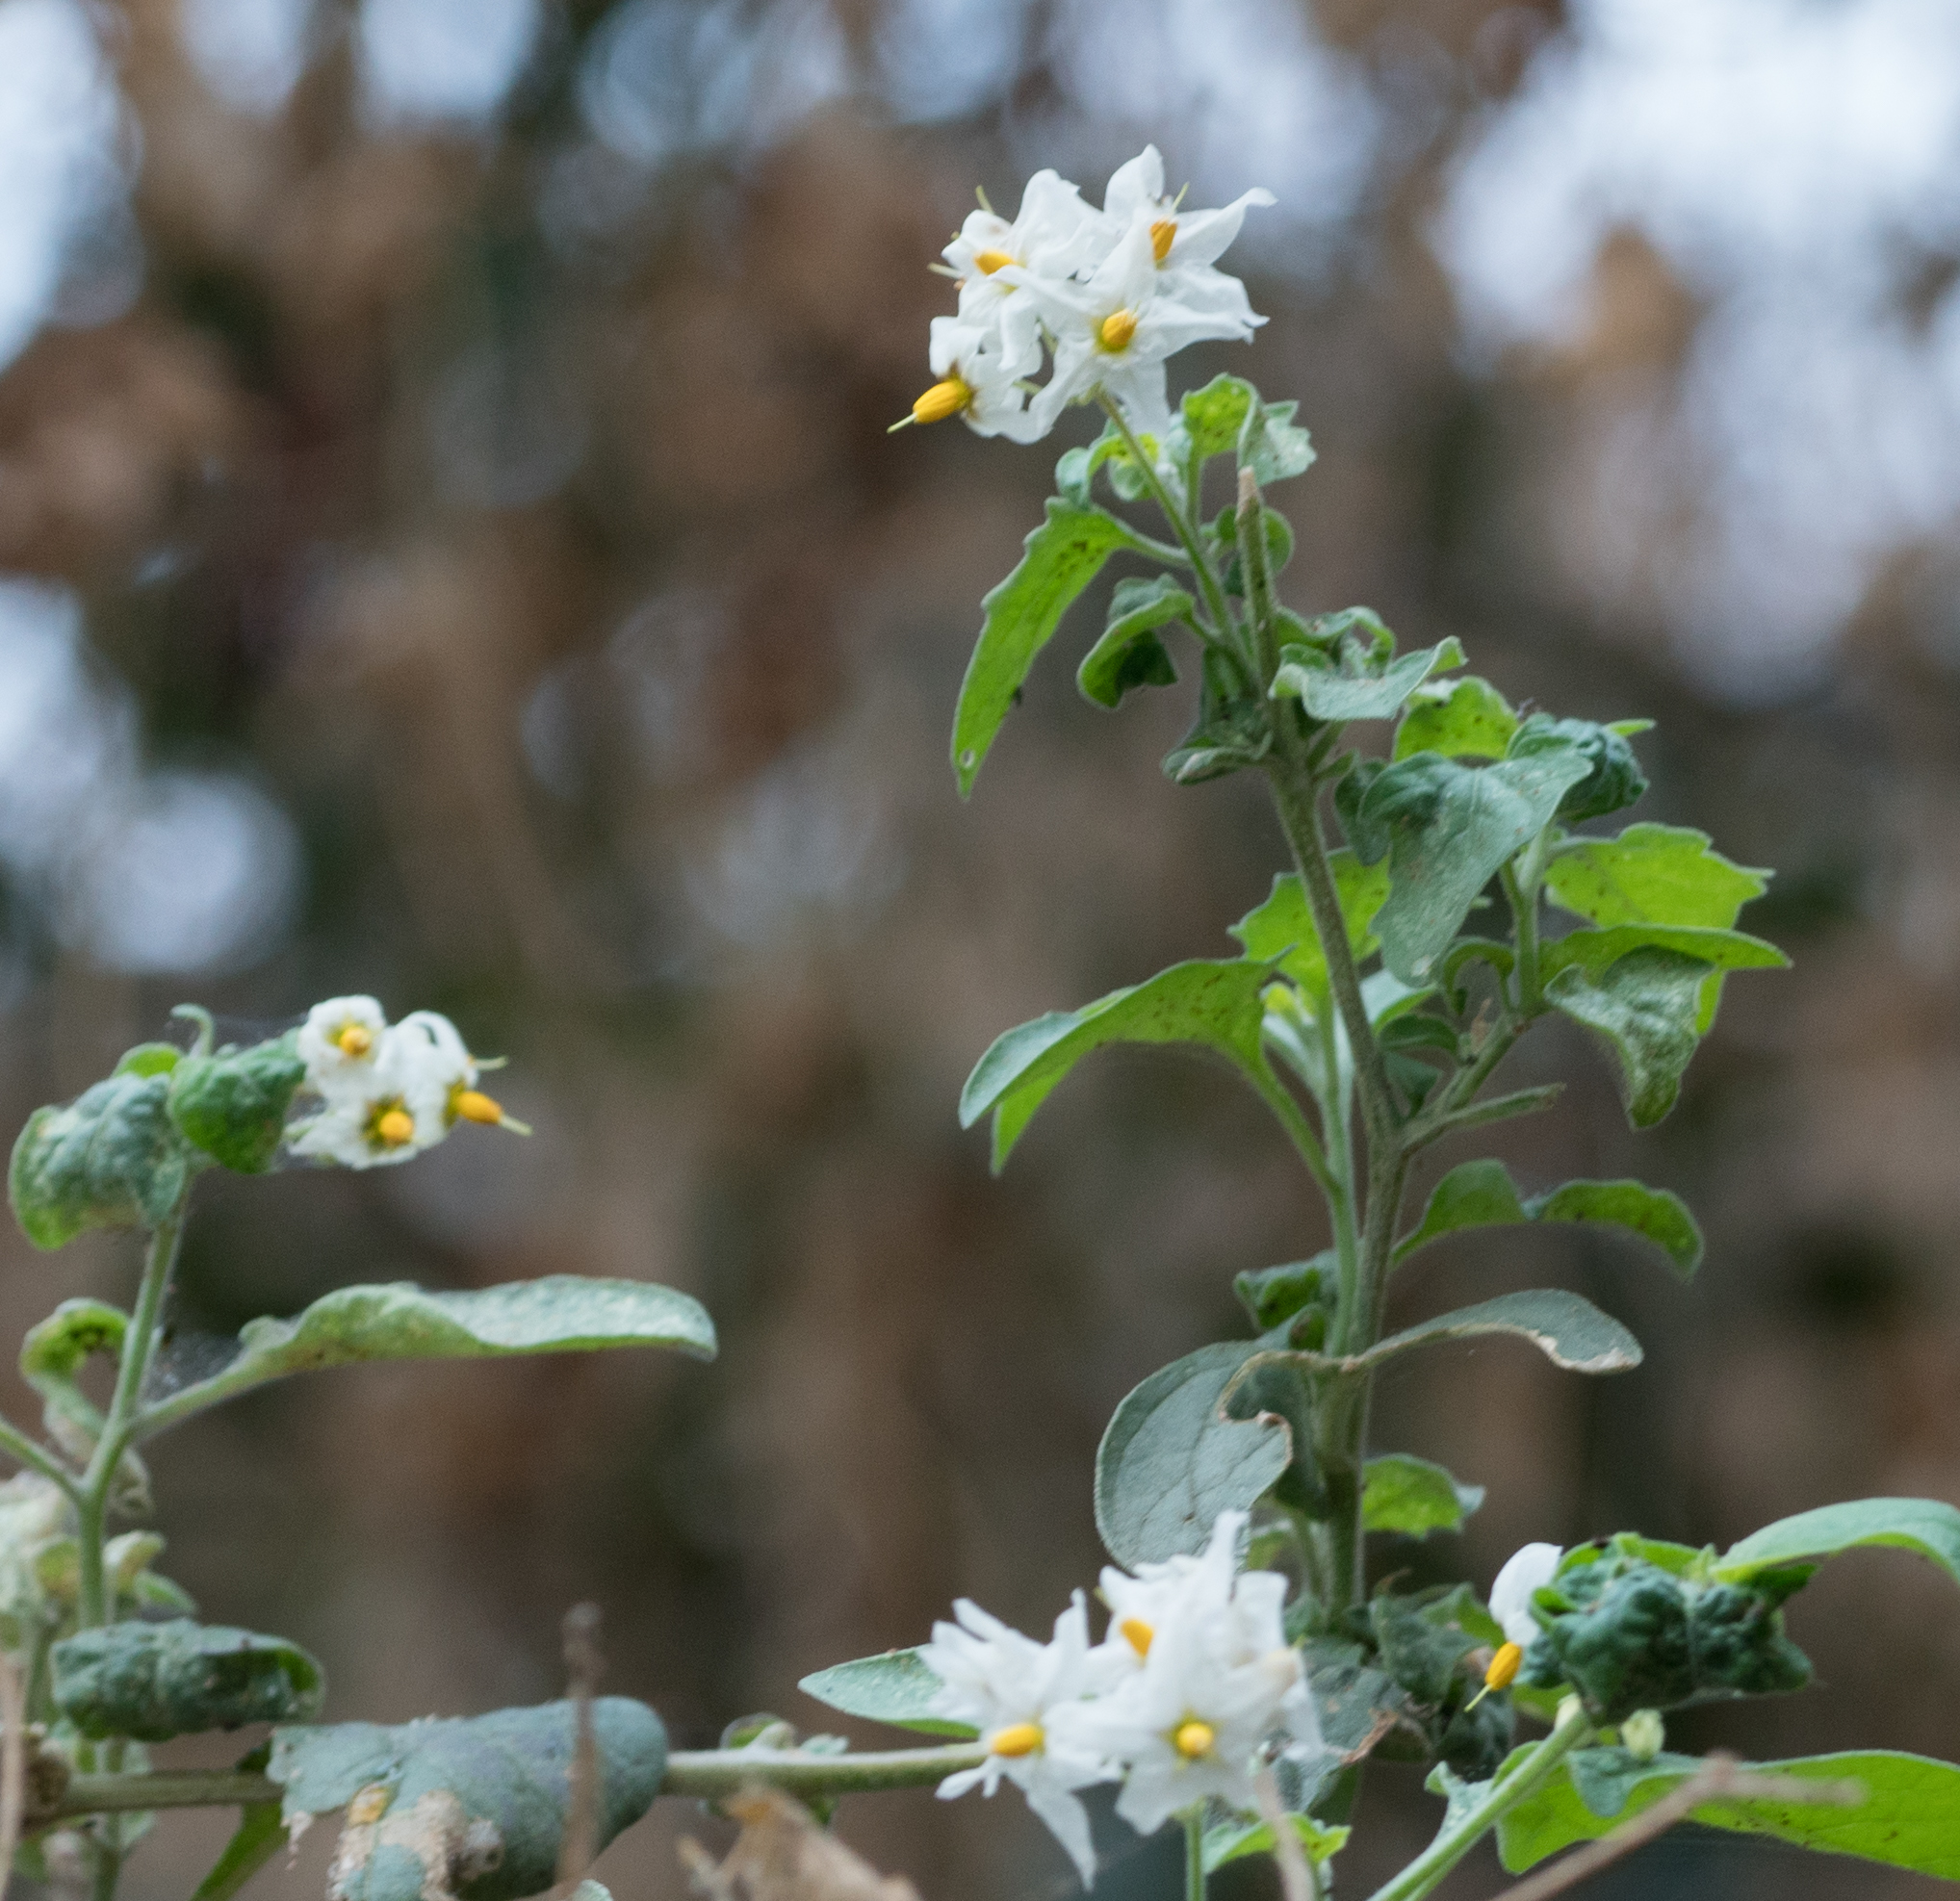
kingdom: Plantae
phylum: Tracheophyta
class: Magnoliopsida
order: Solanales
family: Solanaceae
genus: Solanum
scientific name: Solanum douglasii
